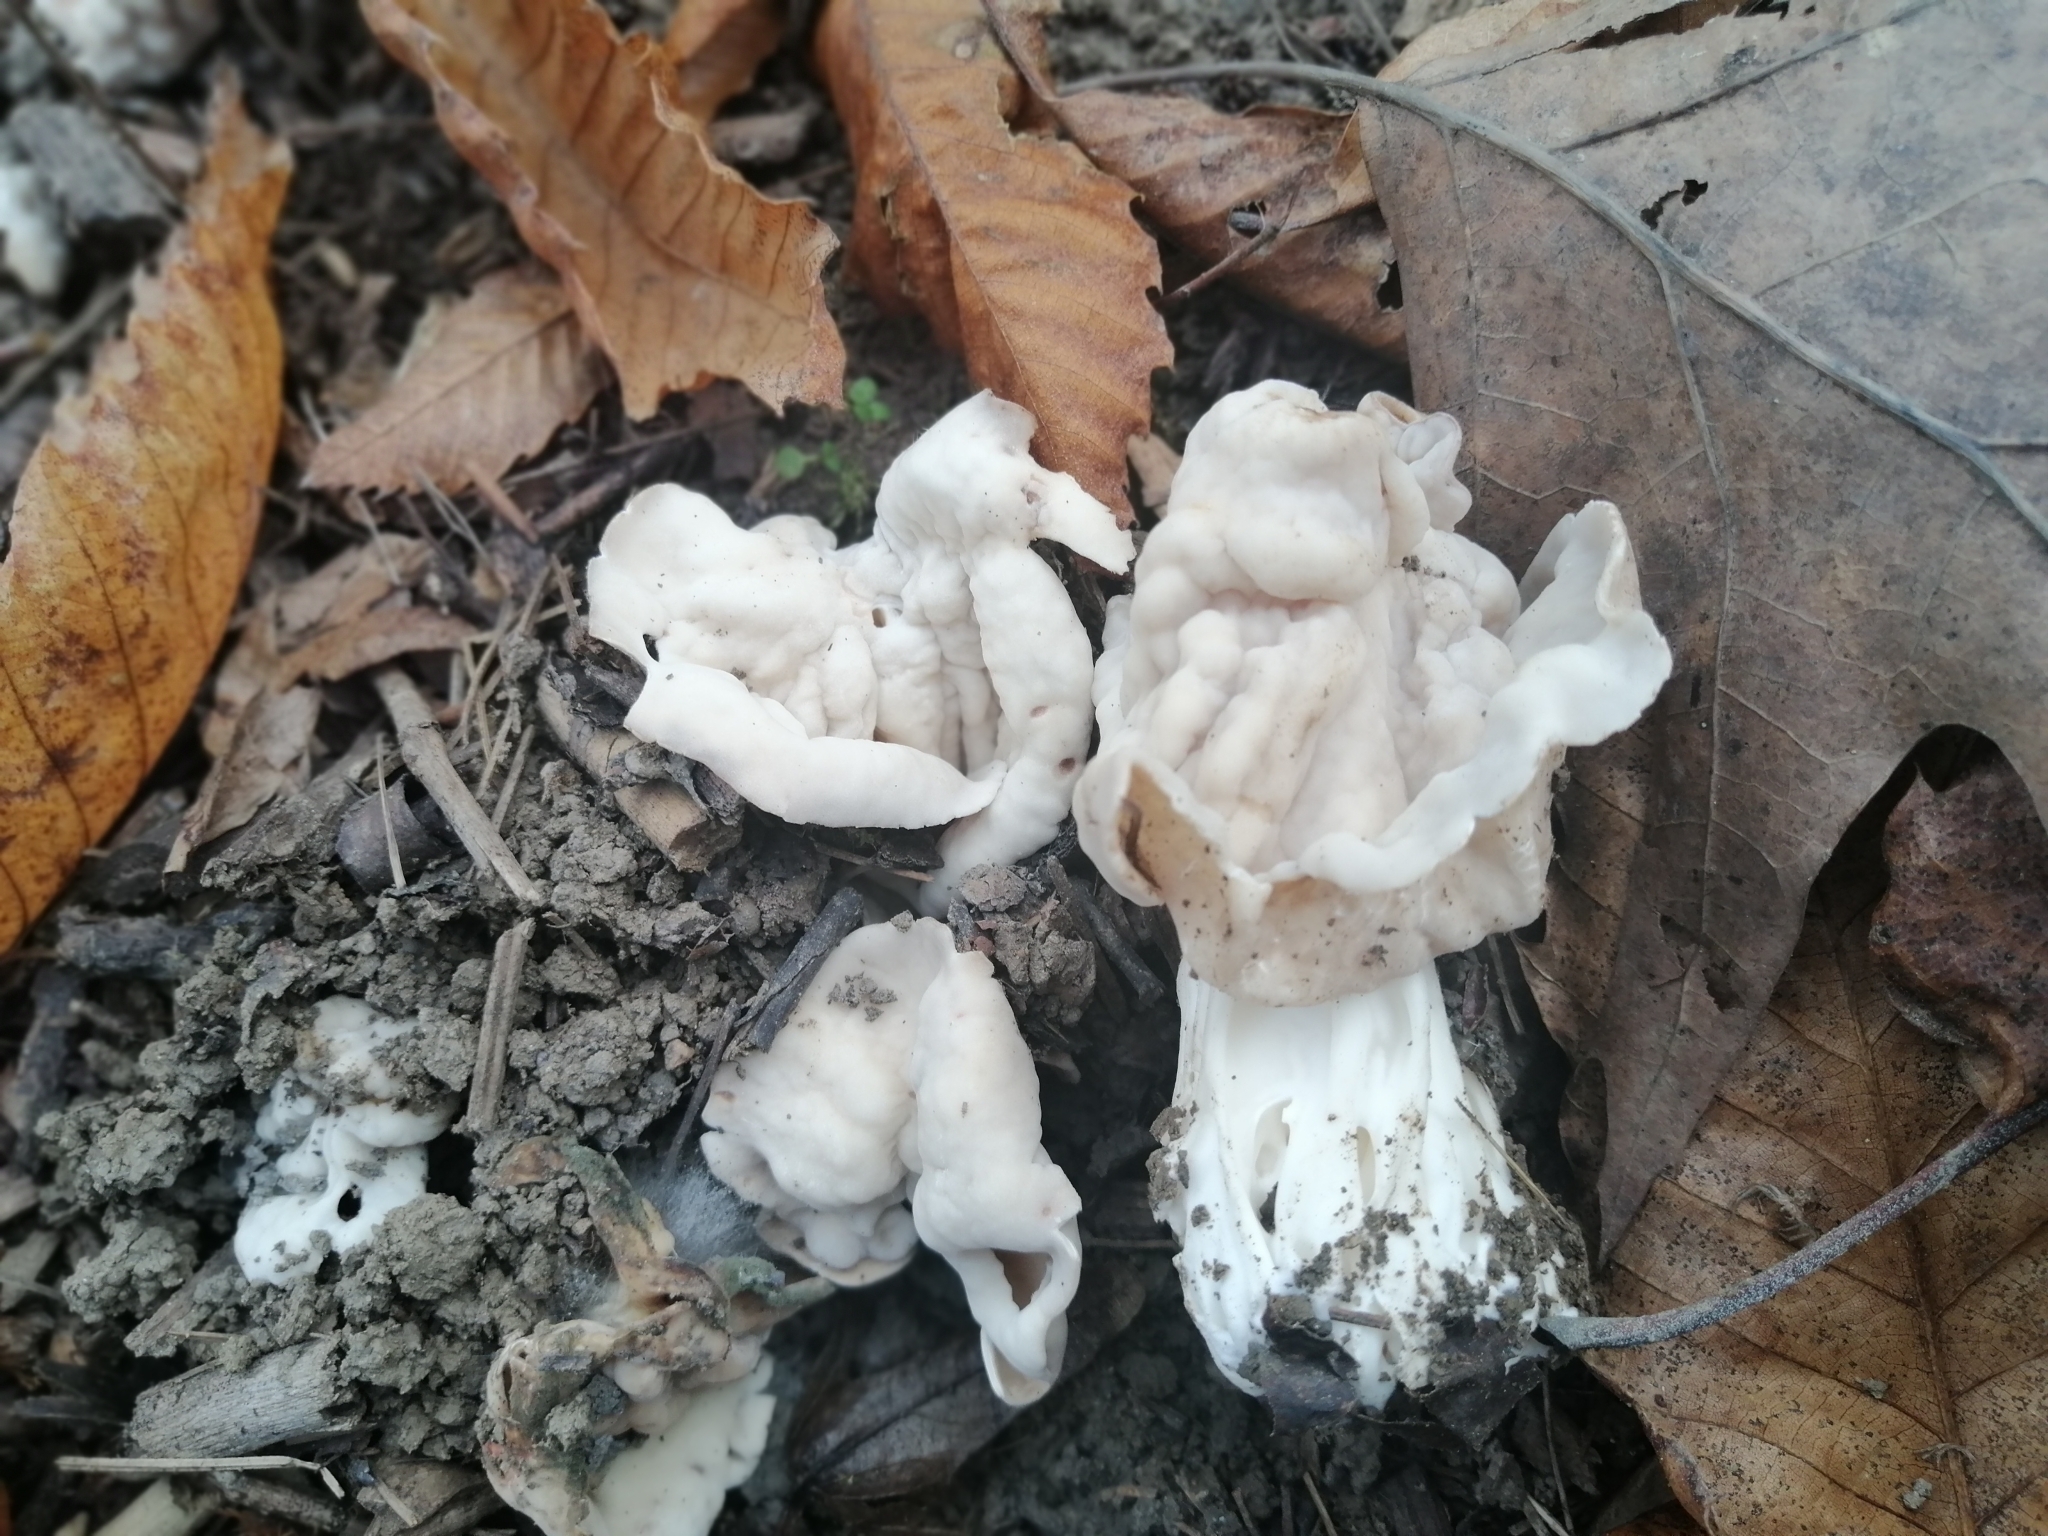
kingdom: Fungi
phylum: Ascomycota
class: Pezizomycetes
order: Pezizales
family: Helvellaceae
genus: Helvella
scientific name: Helvella crispa
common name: White saddle
